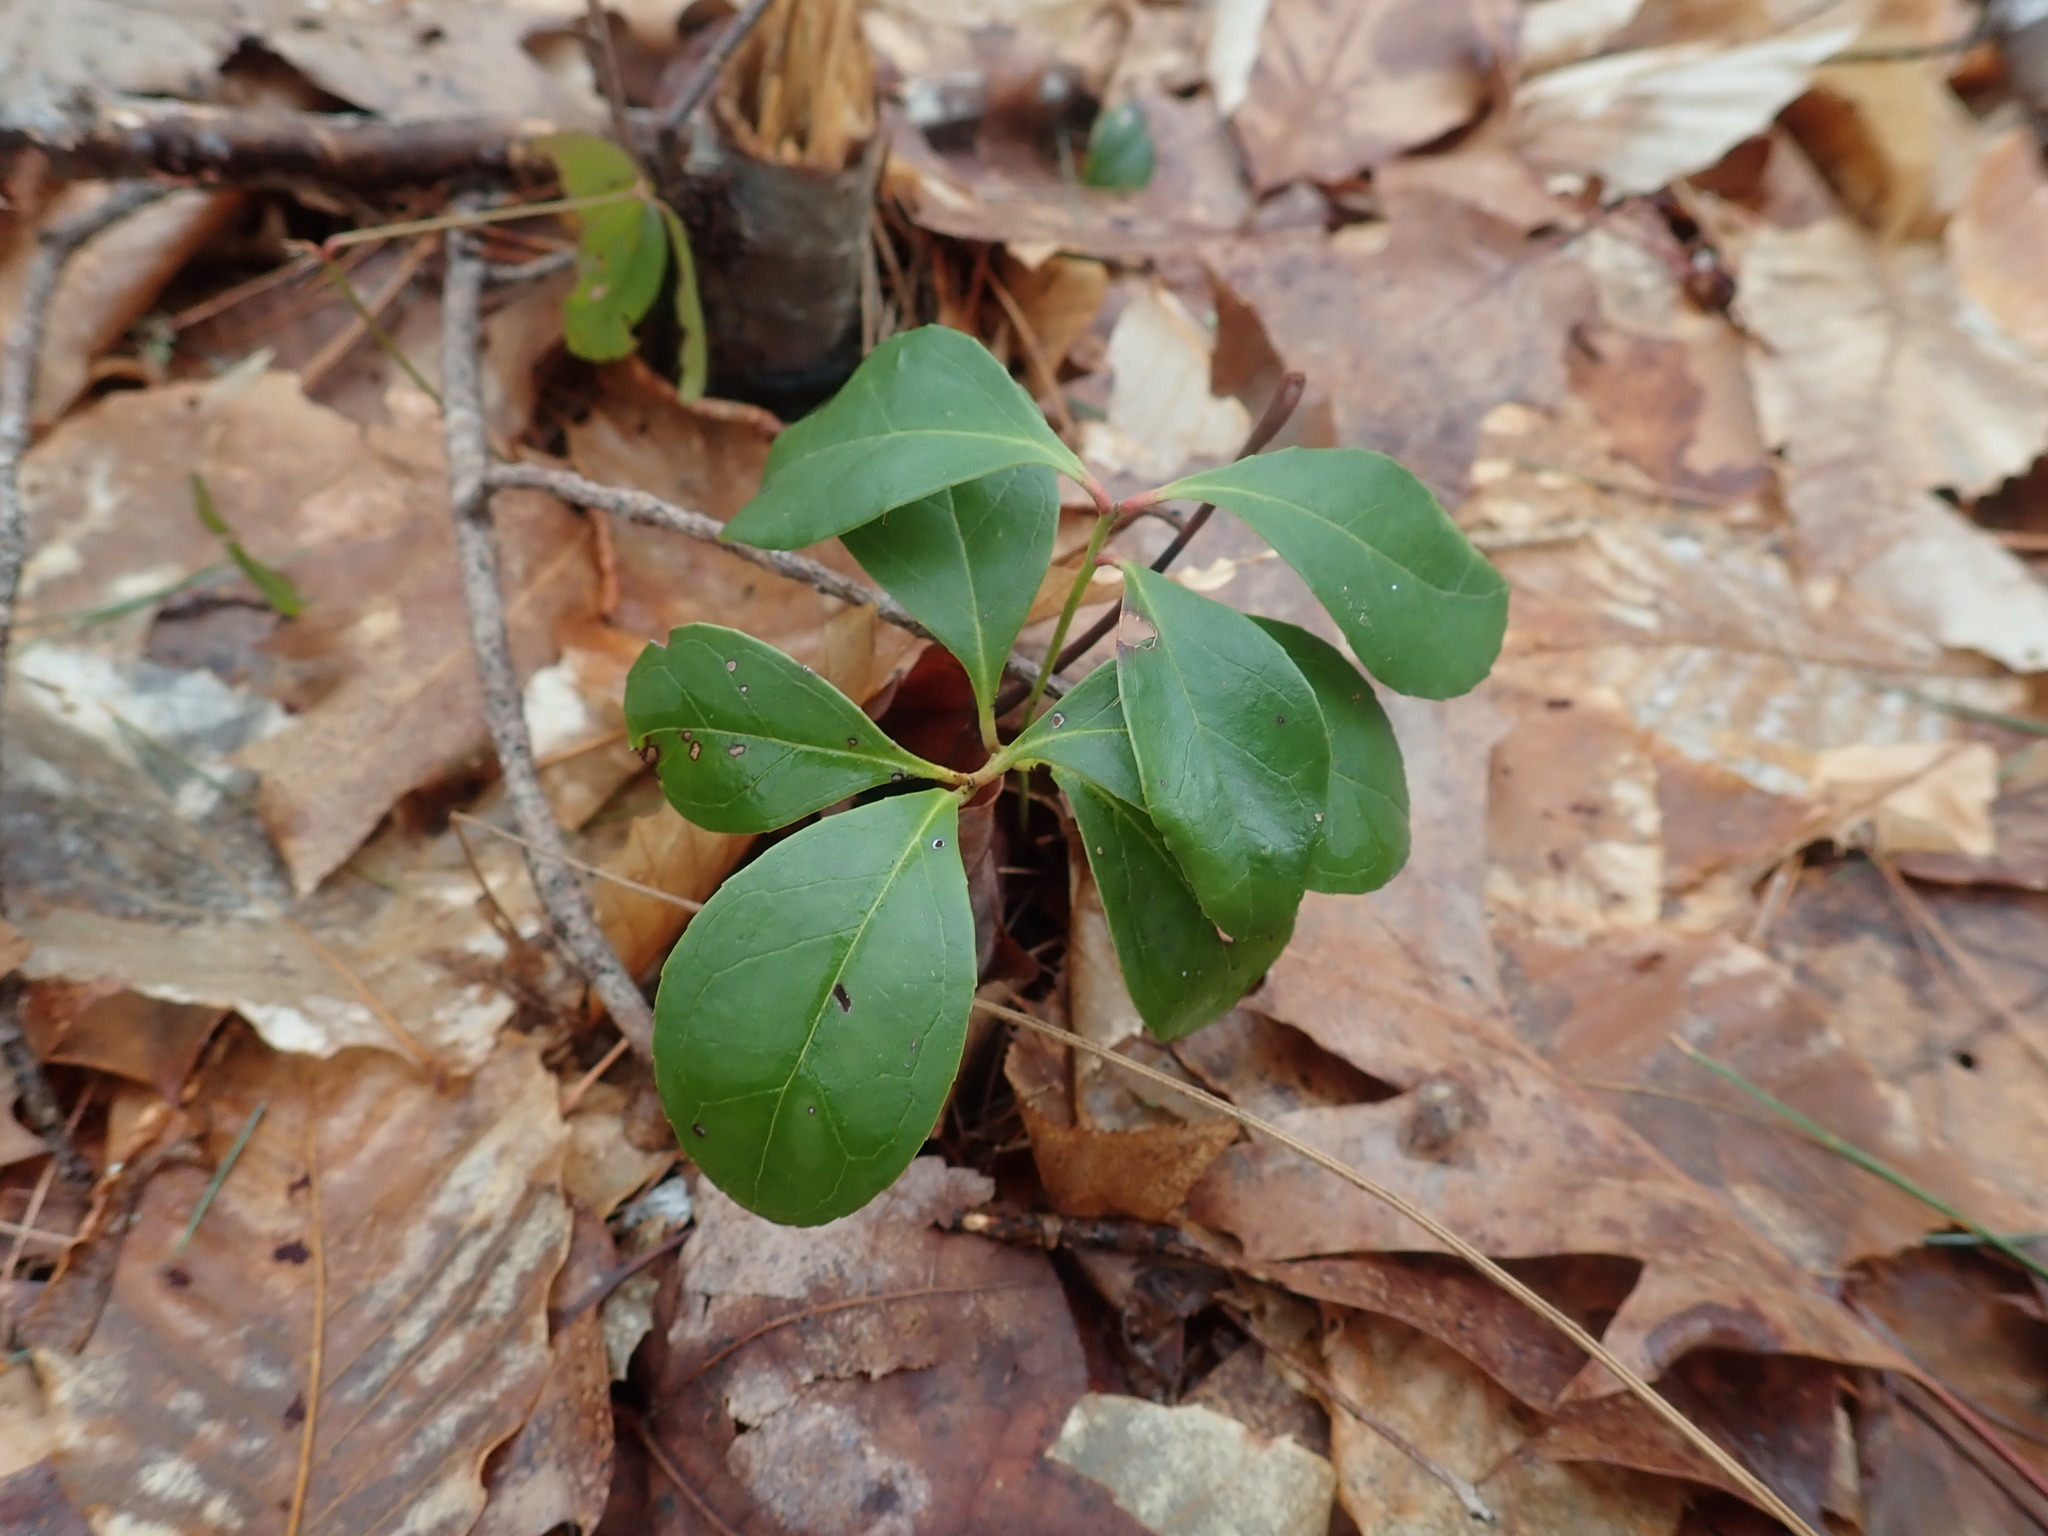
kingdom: Plantae
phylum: Tracheophyta
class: Magnoliopsida
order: Ericales
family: Ericaceae
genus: Gaultheria
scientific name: Gaultheria procumbens
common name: Checkerberry
